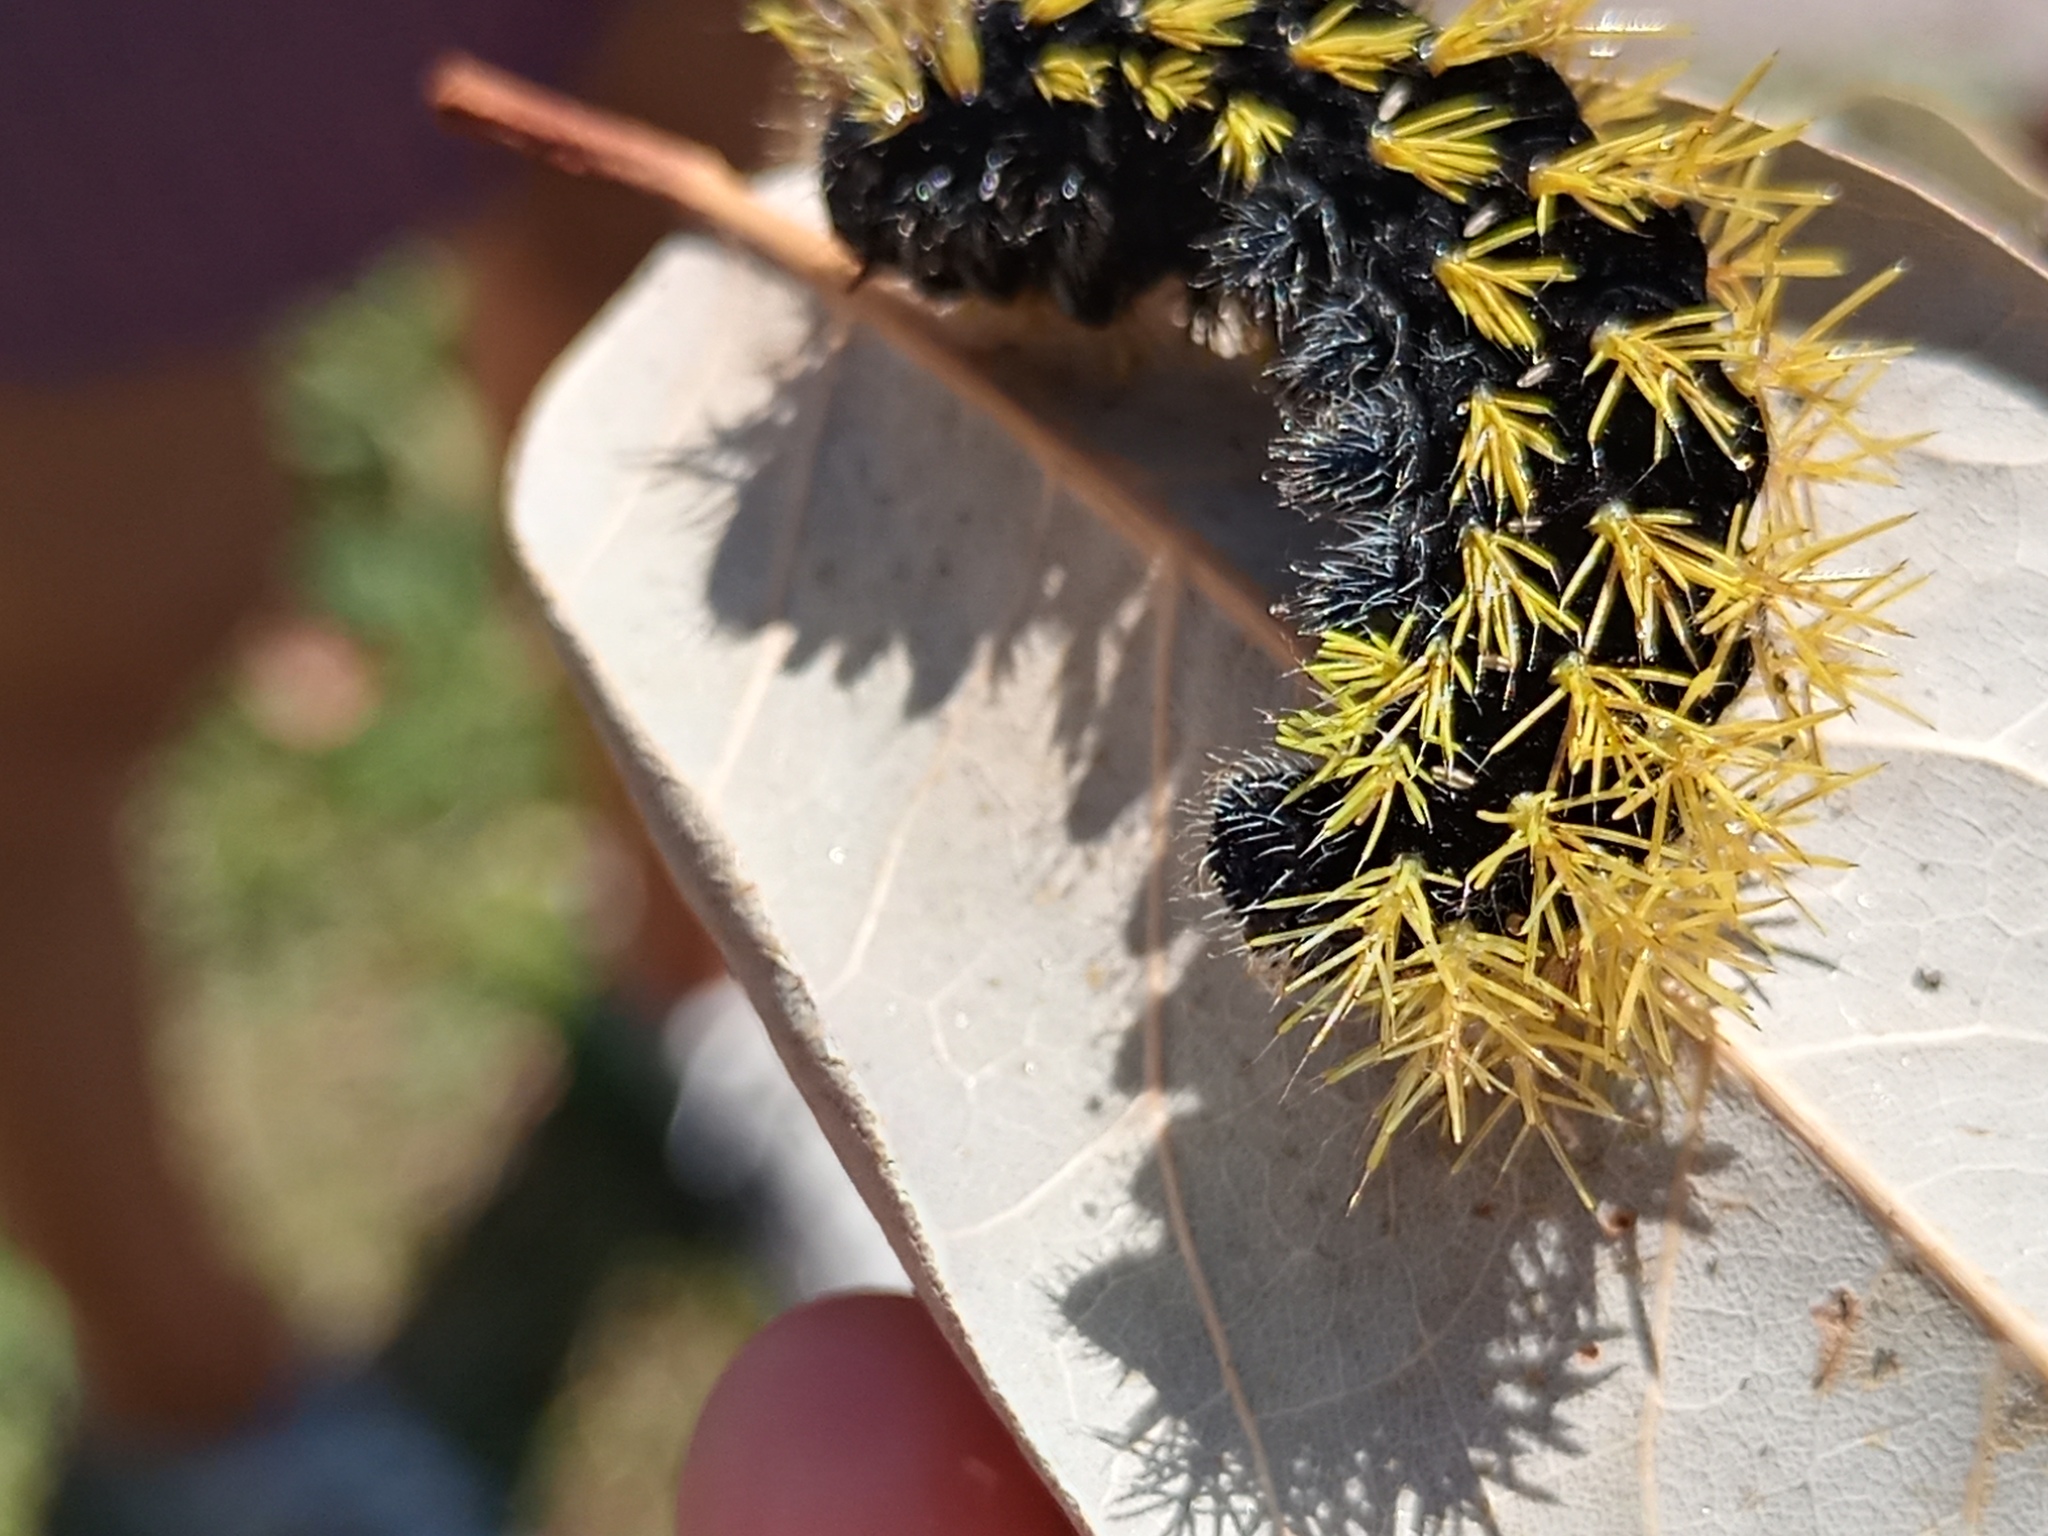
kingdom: Animalia
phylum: Arthropoda
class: Insecta
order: Lepidoptera
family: Saturniidae
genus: Leucanella
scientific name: Leucanella viridescens
